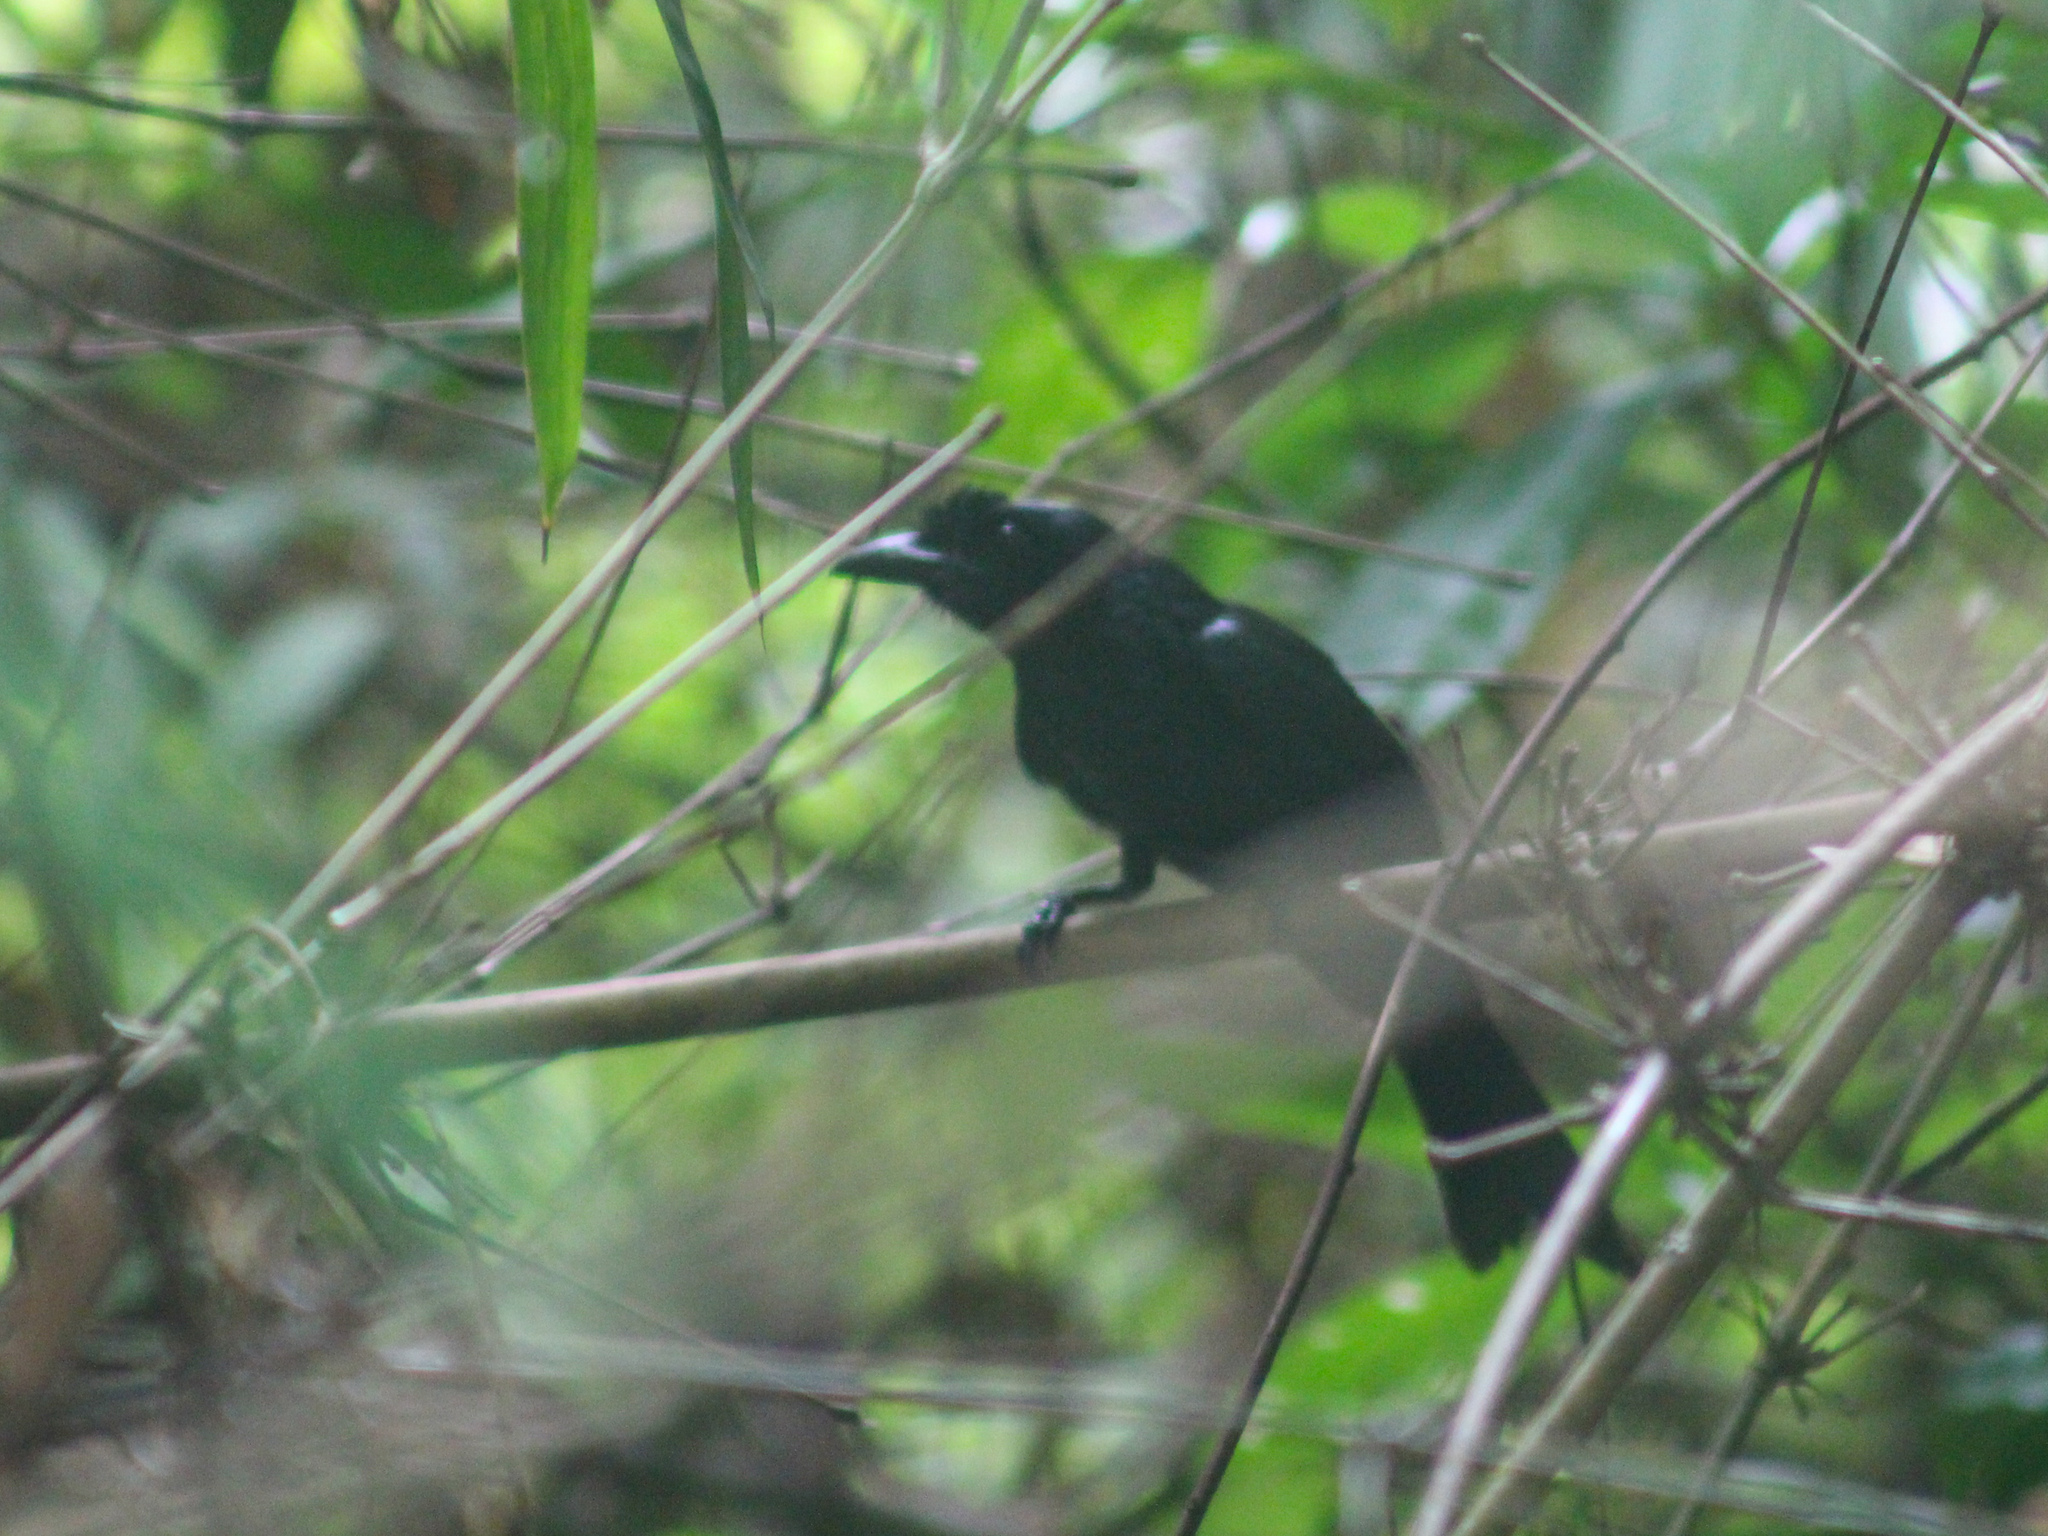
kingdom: Animalia
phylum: Chordata
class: Aves
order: Passeriformes
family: Dicruridae
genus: Dicrurus
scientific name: Dicrurus paradiseus
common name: Greater racket-tailed drongo
